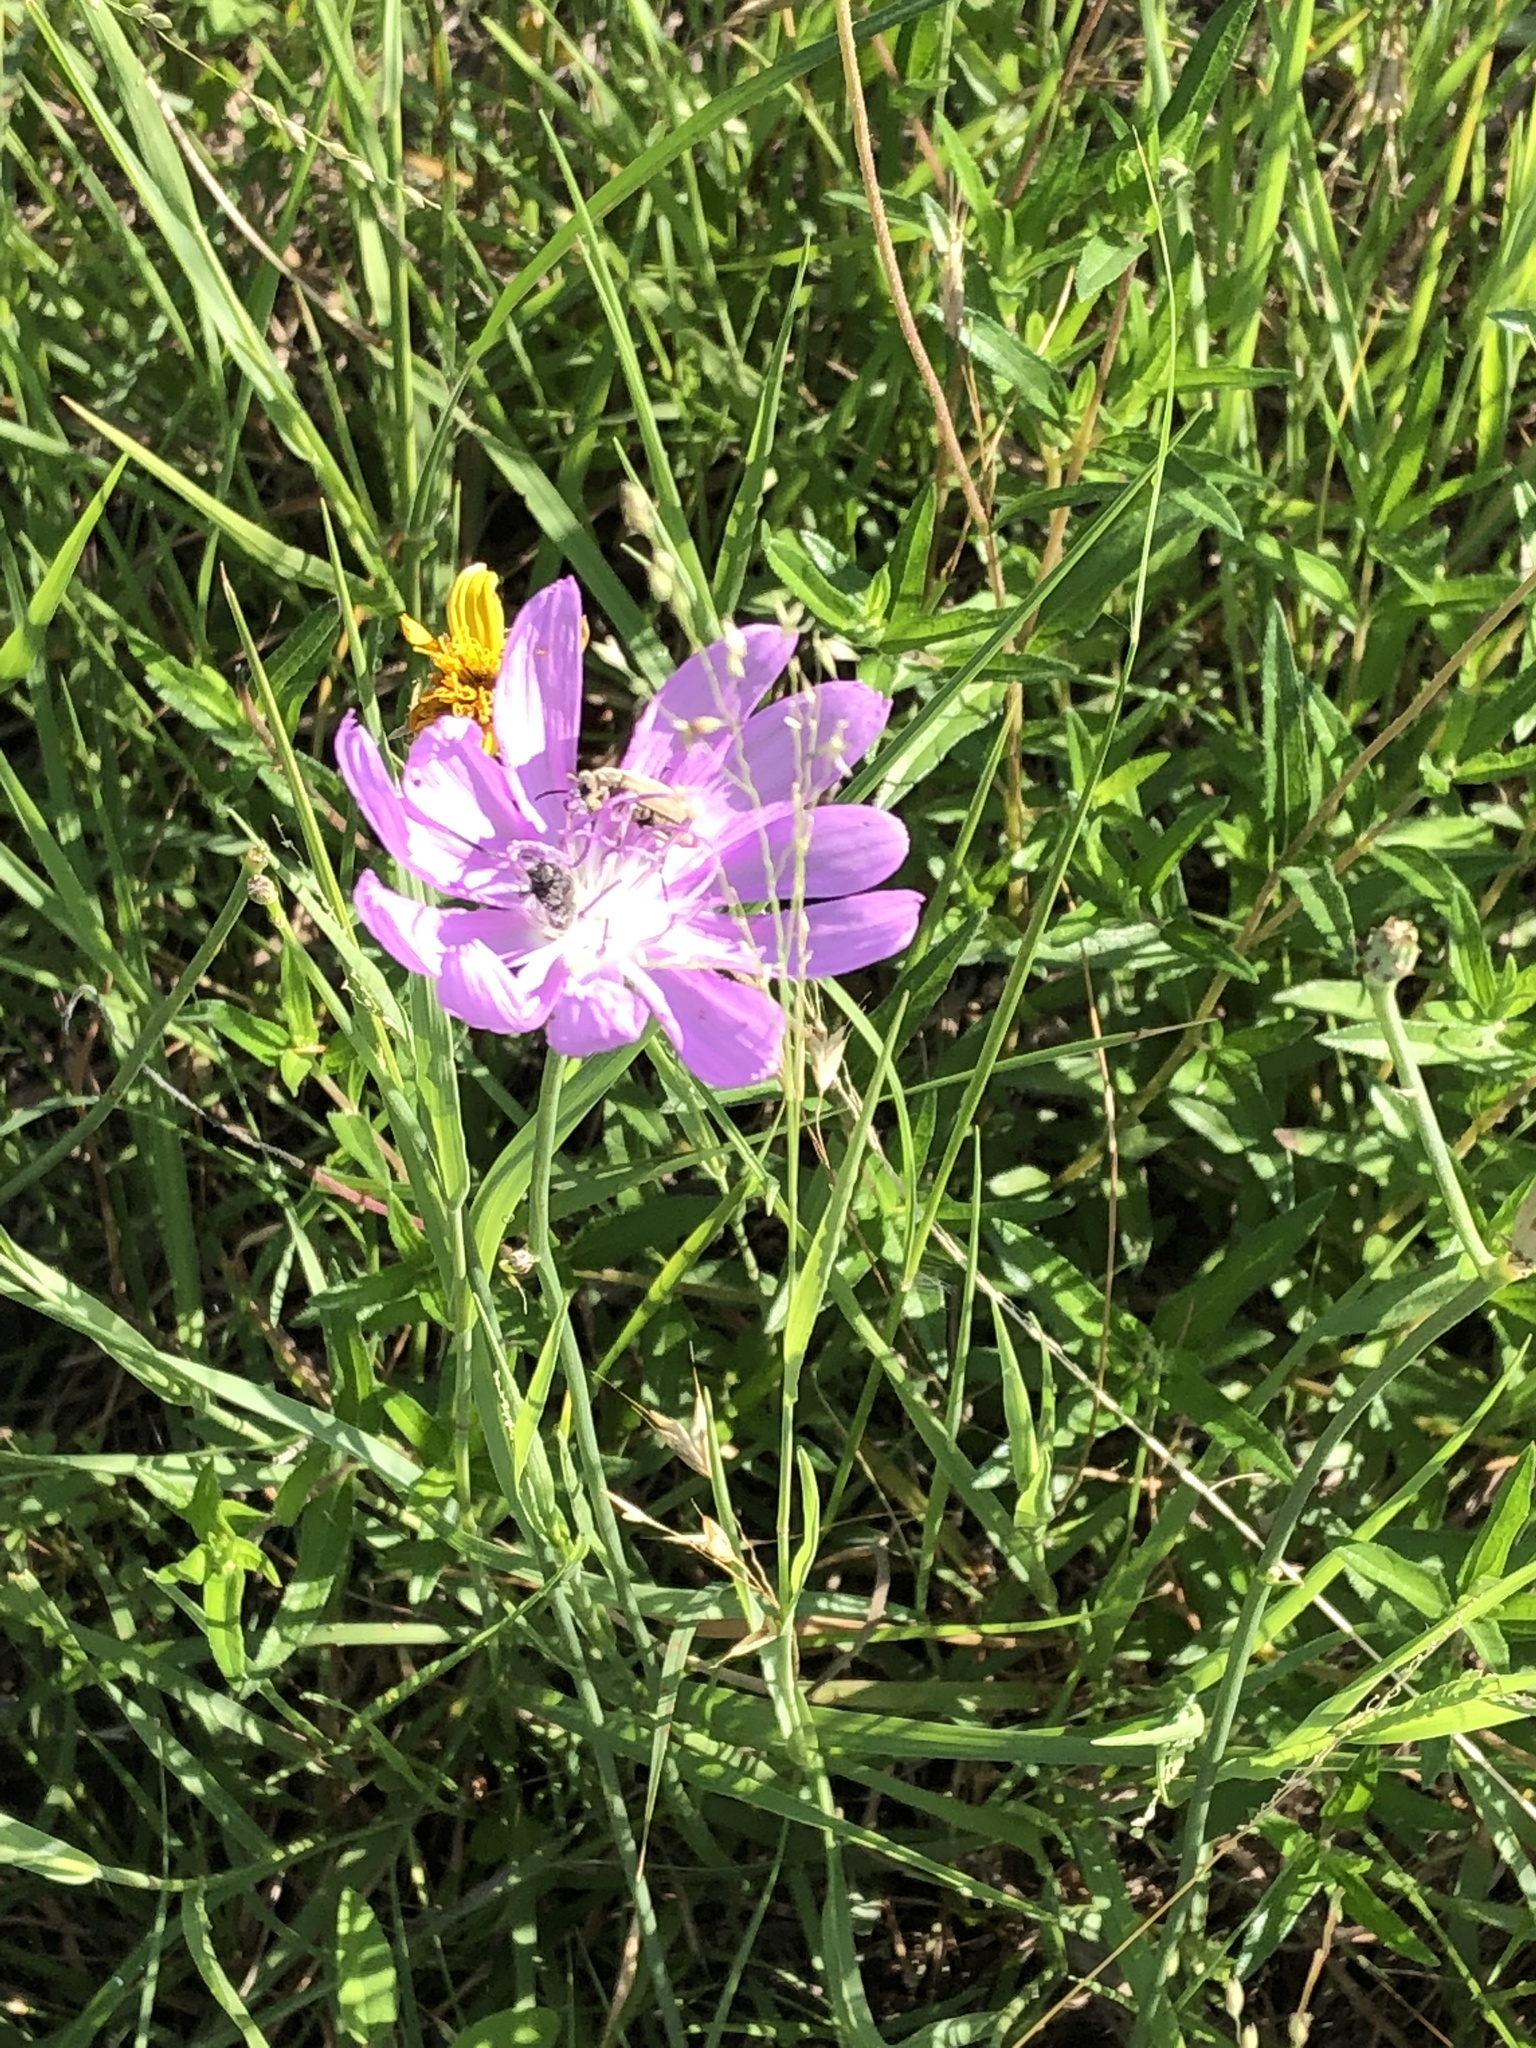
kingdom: Plantae
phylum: Tracheophyta
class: Magnoliopsida
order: Asterales
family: Asteraceae
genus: Lygodesmia
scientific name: Lygodesmia texana
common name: Texas skeleton-plant
